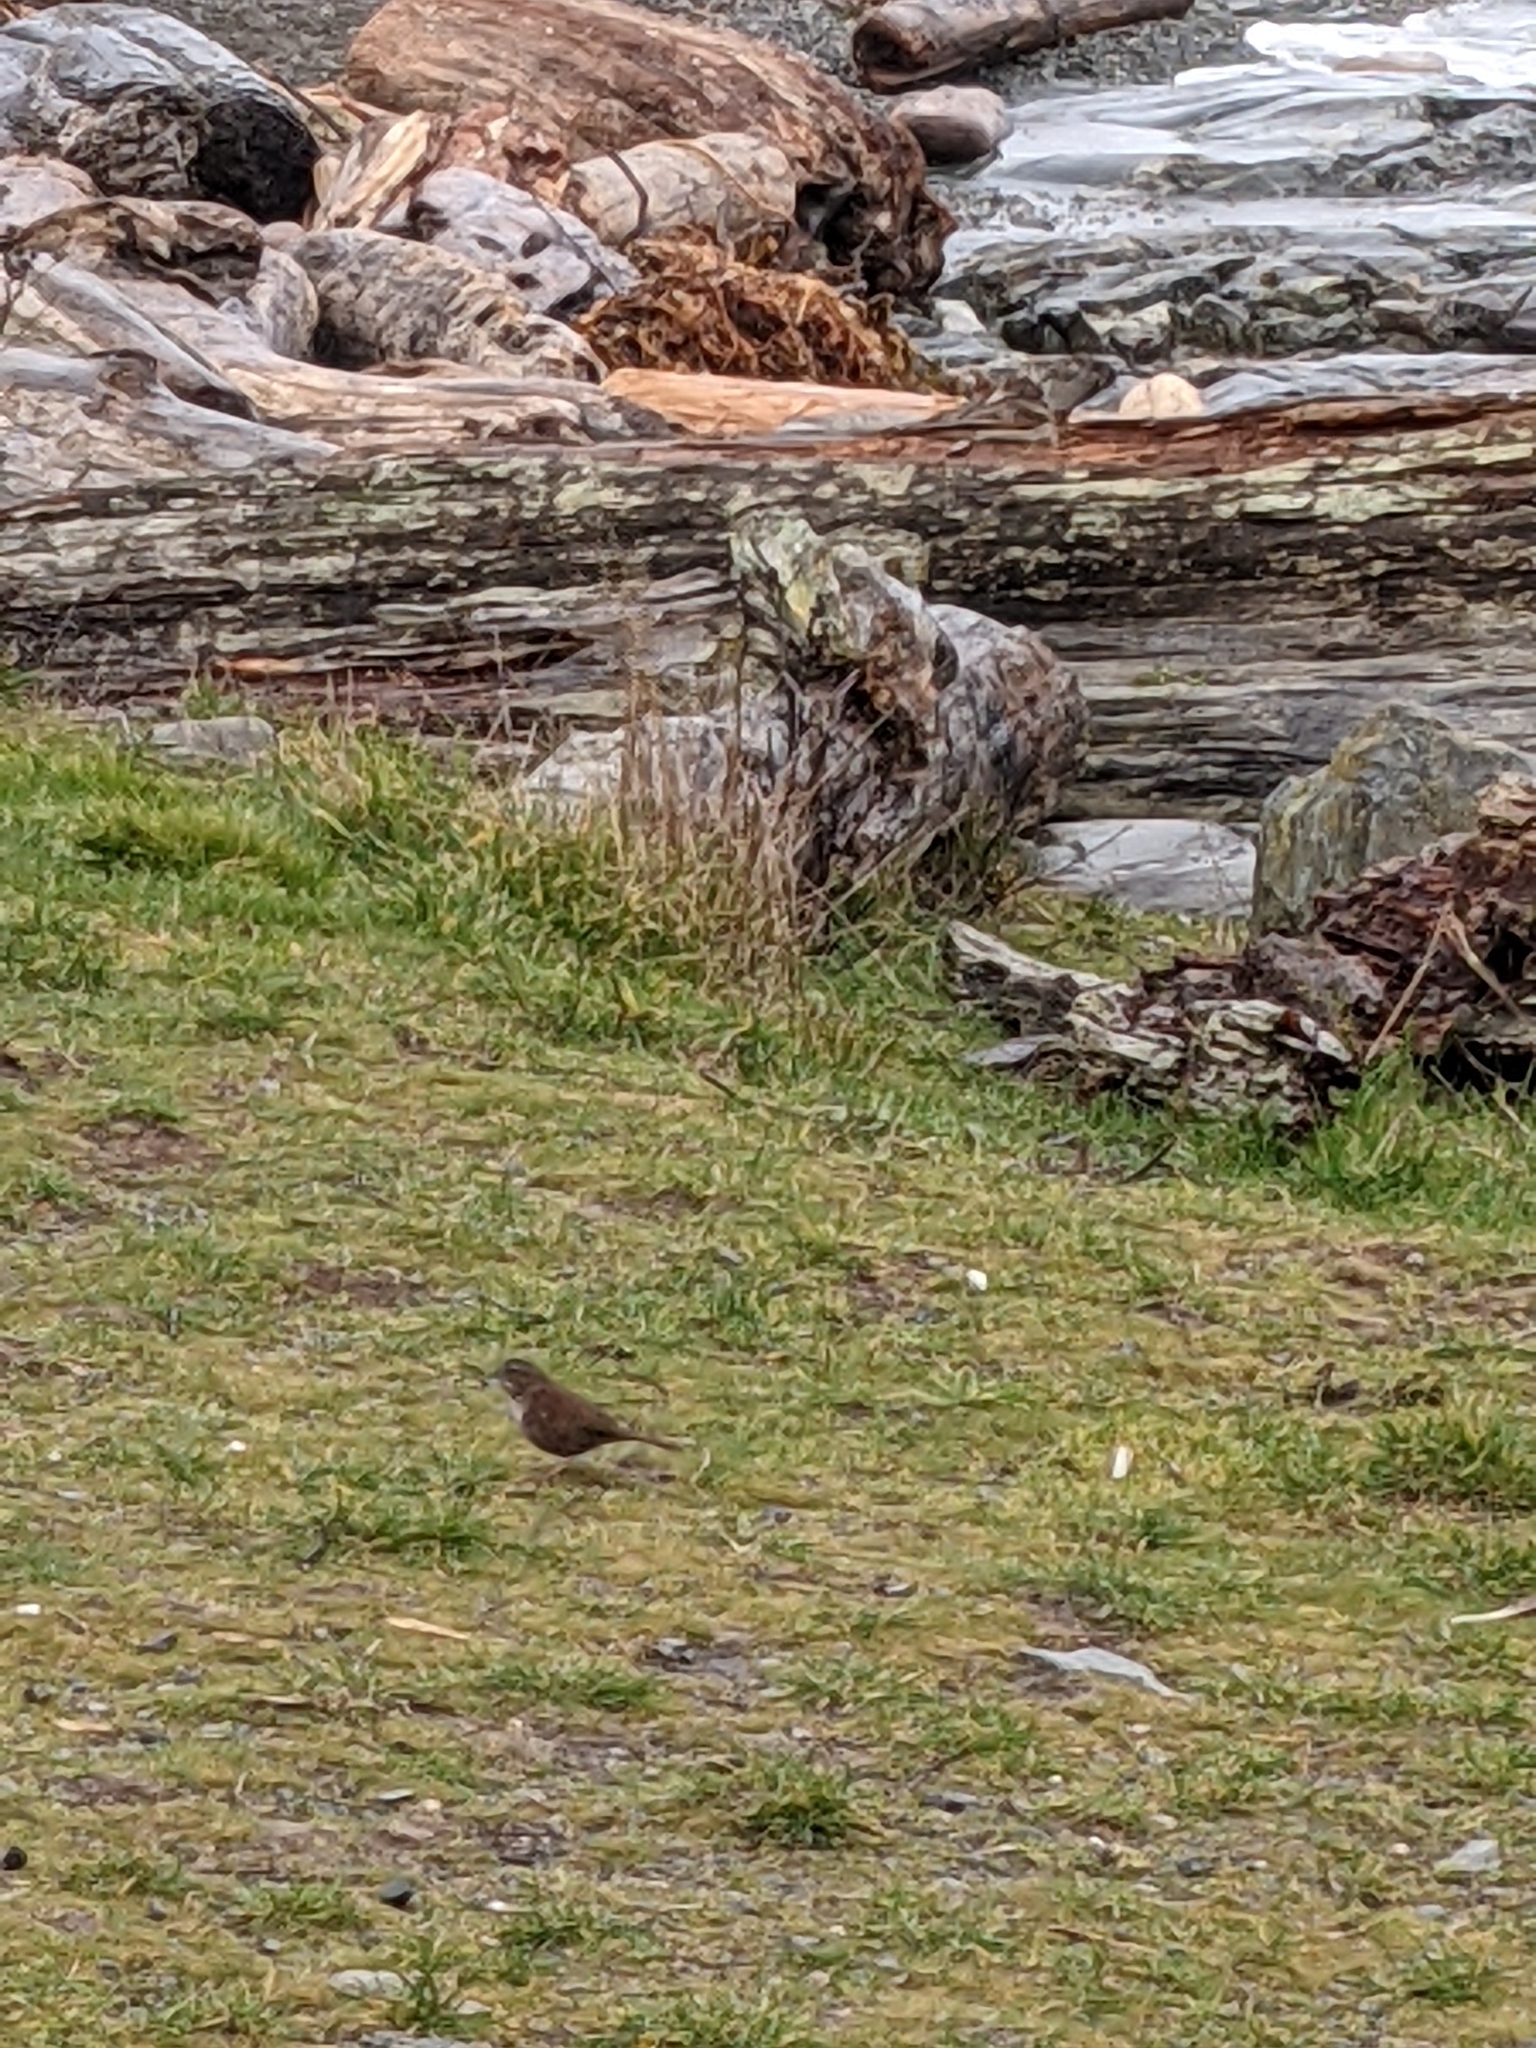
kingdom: Animalia
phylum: Chordata
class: Aves
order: Passeriformes
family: Passerellidae
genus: Melospiza
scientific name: Melospiza melodia
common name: Song sparrow
